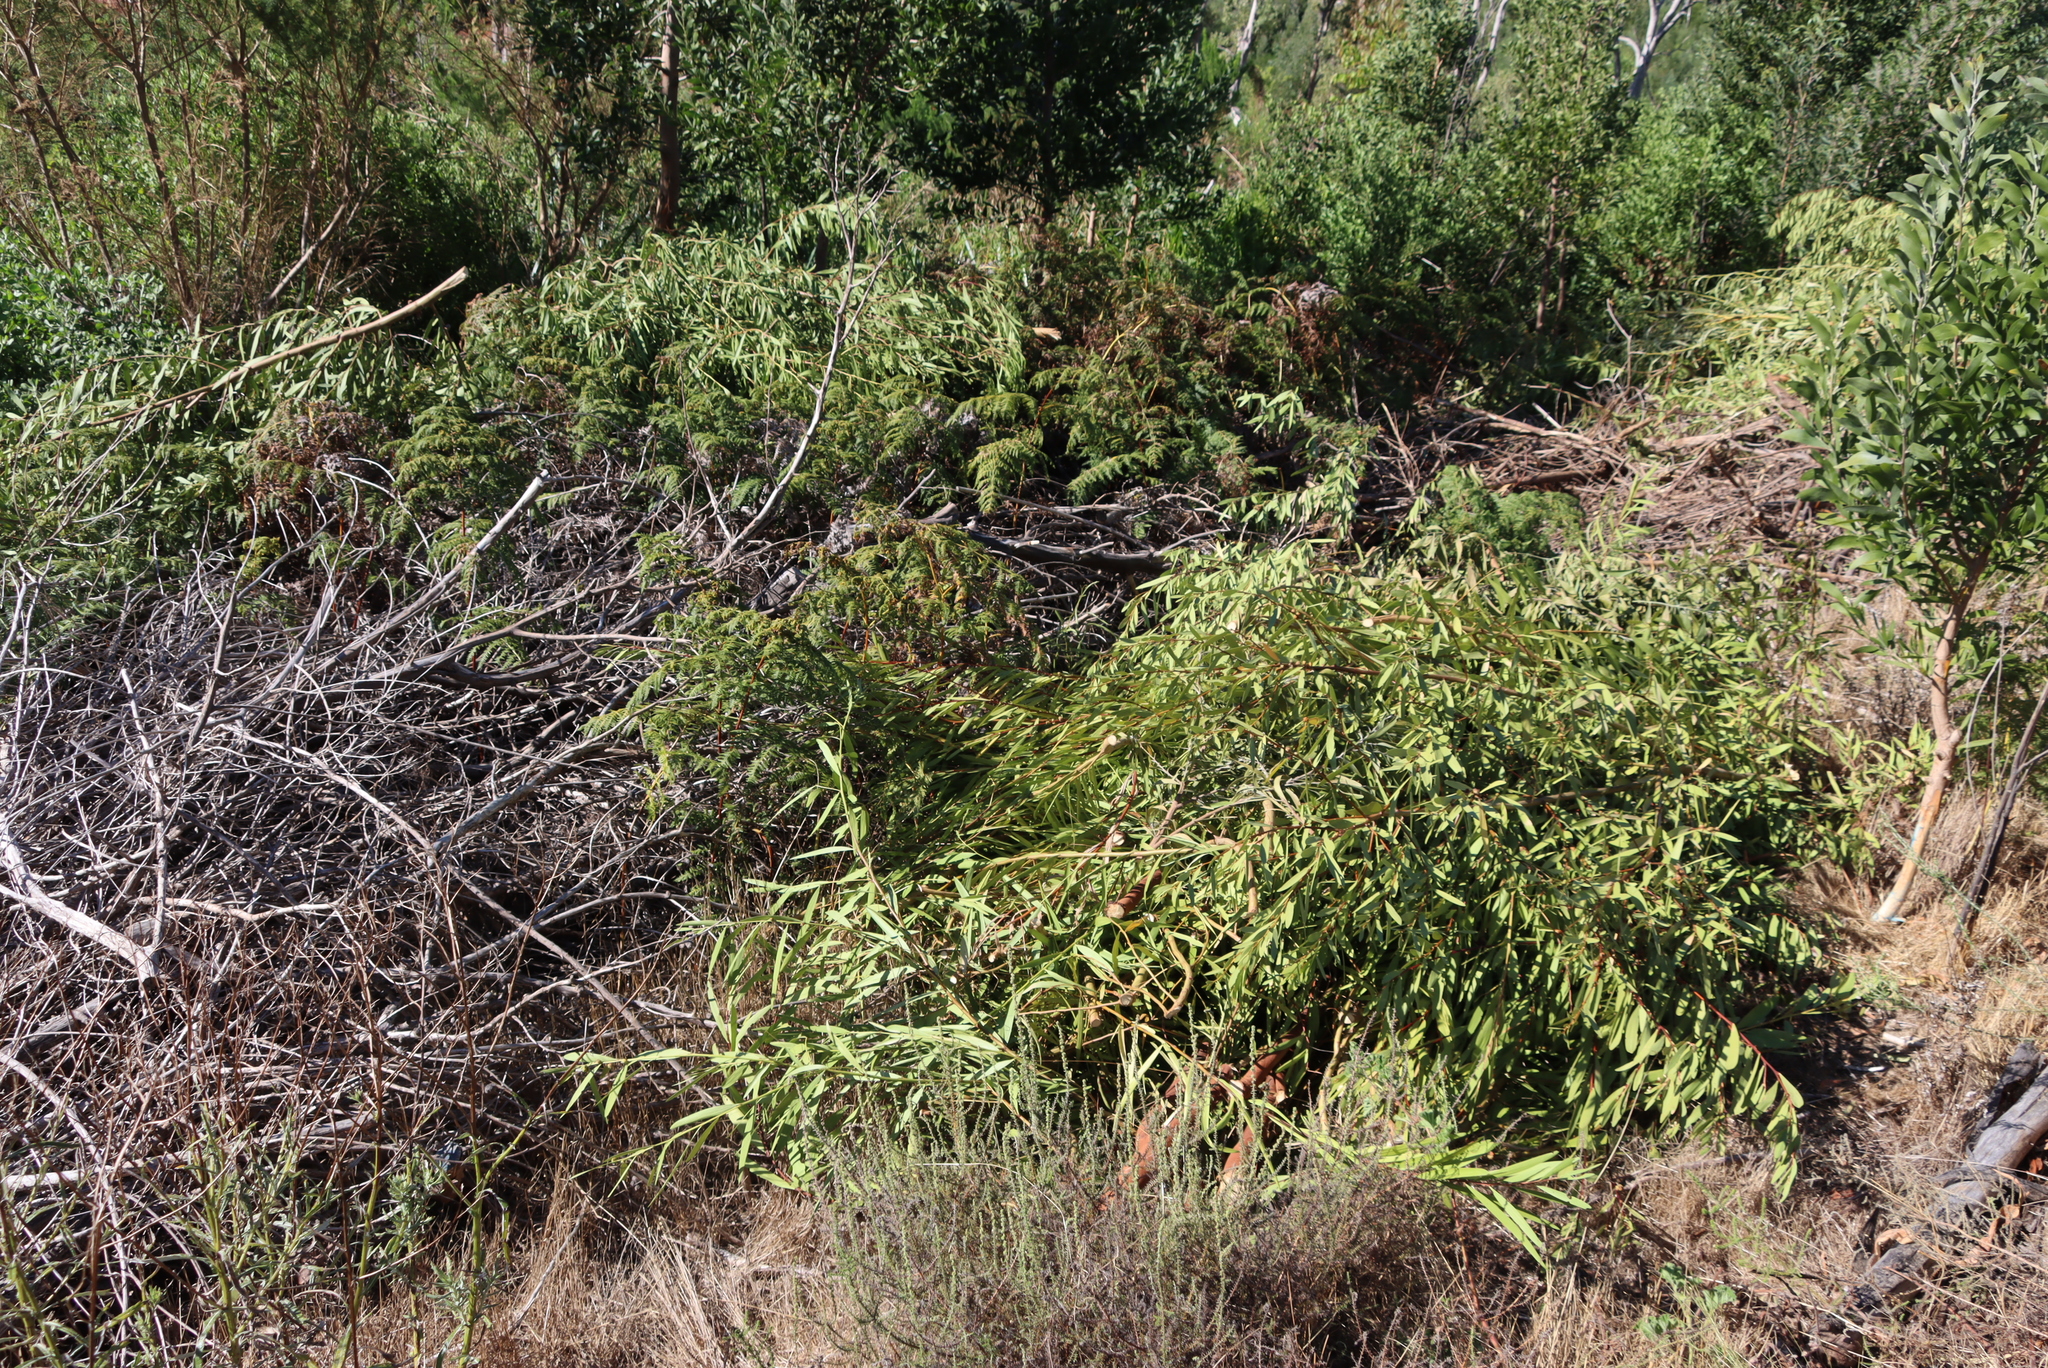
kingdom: Plantae
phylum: Tracheophyta
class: Magnoliopsida
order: Fabales
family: Fabaceae
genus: Acacia
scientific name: Acacia longifolia
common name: Sydney golden wattle
